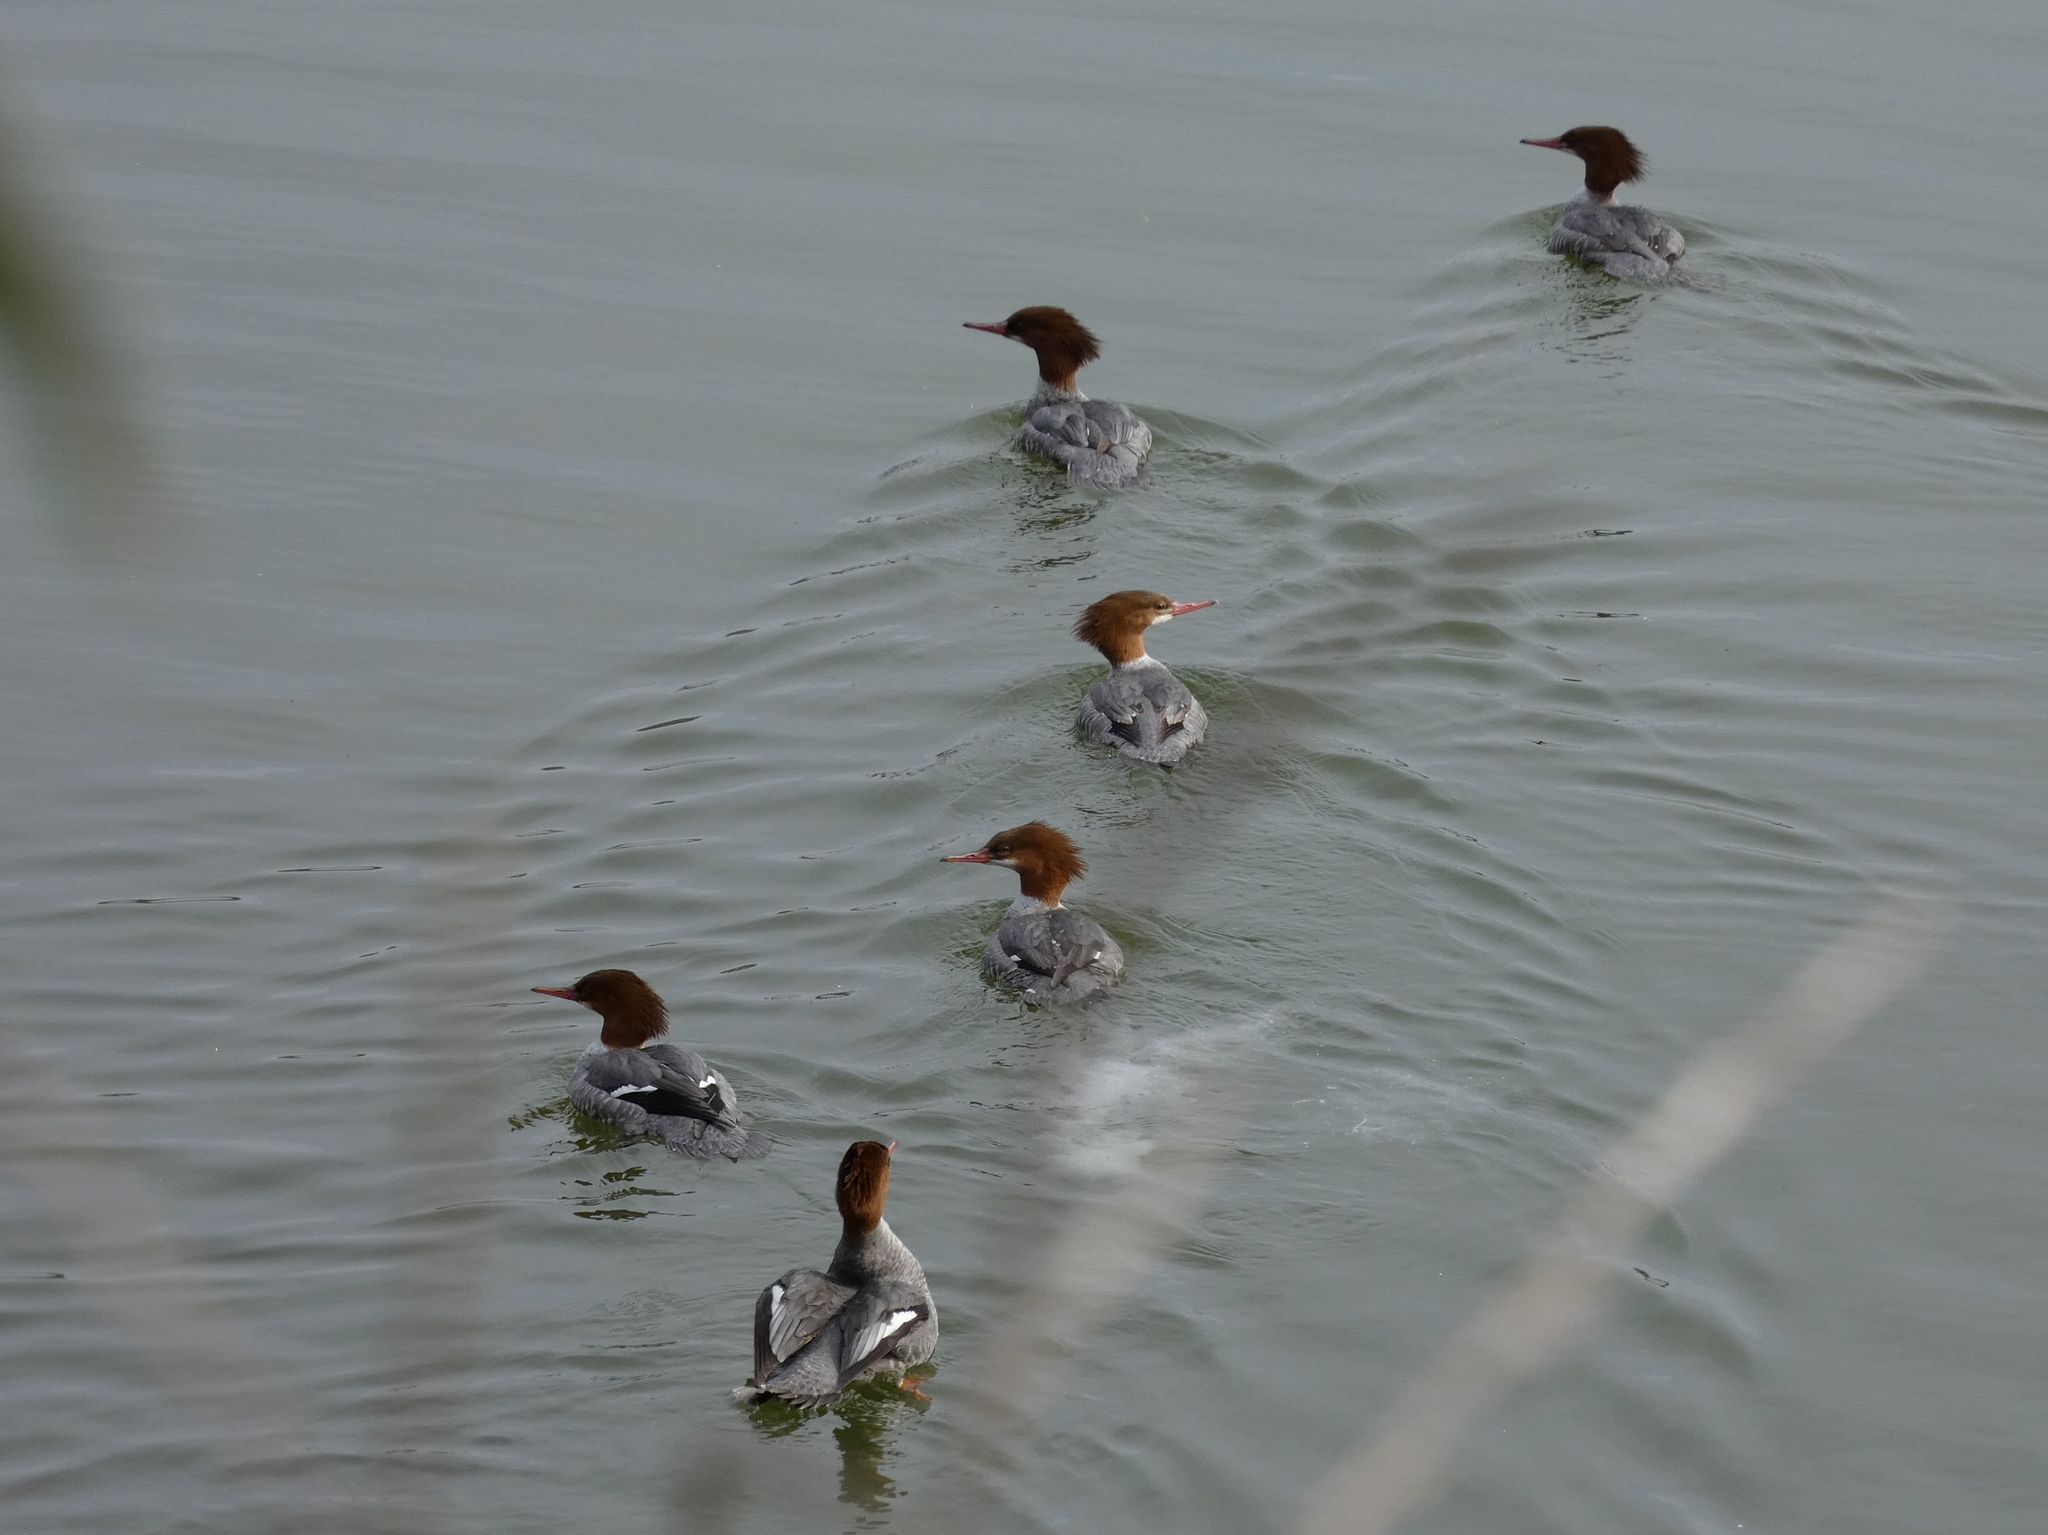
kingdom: Animalia
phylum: Chordata
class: Aves
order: Anseriformes
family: Anatidae
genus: Mergus
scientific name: Mergus merganser
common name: Common merganser
